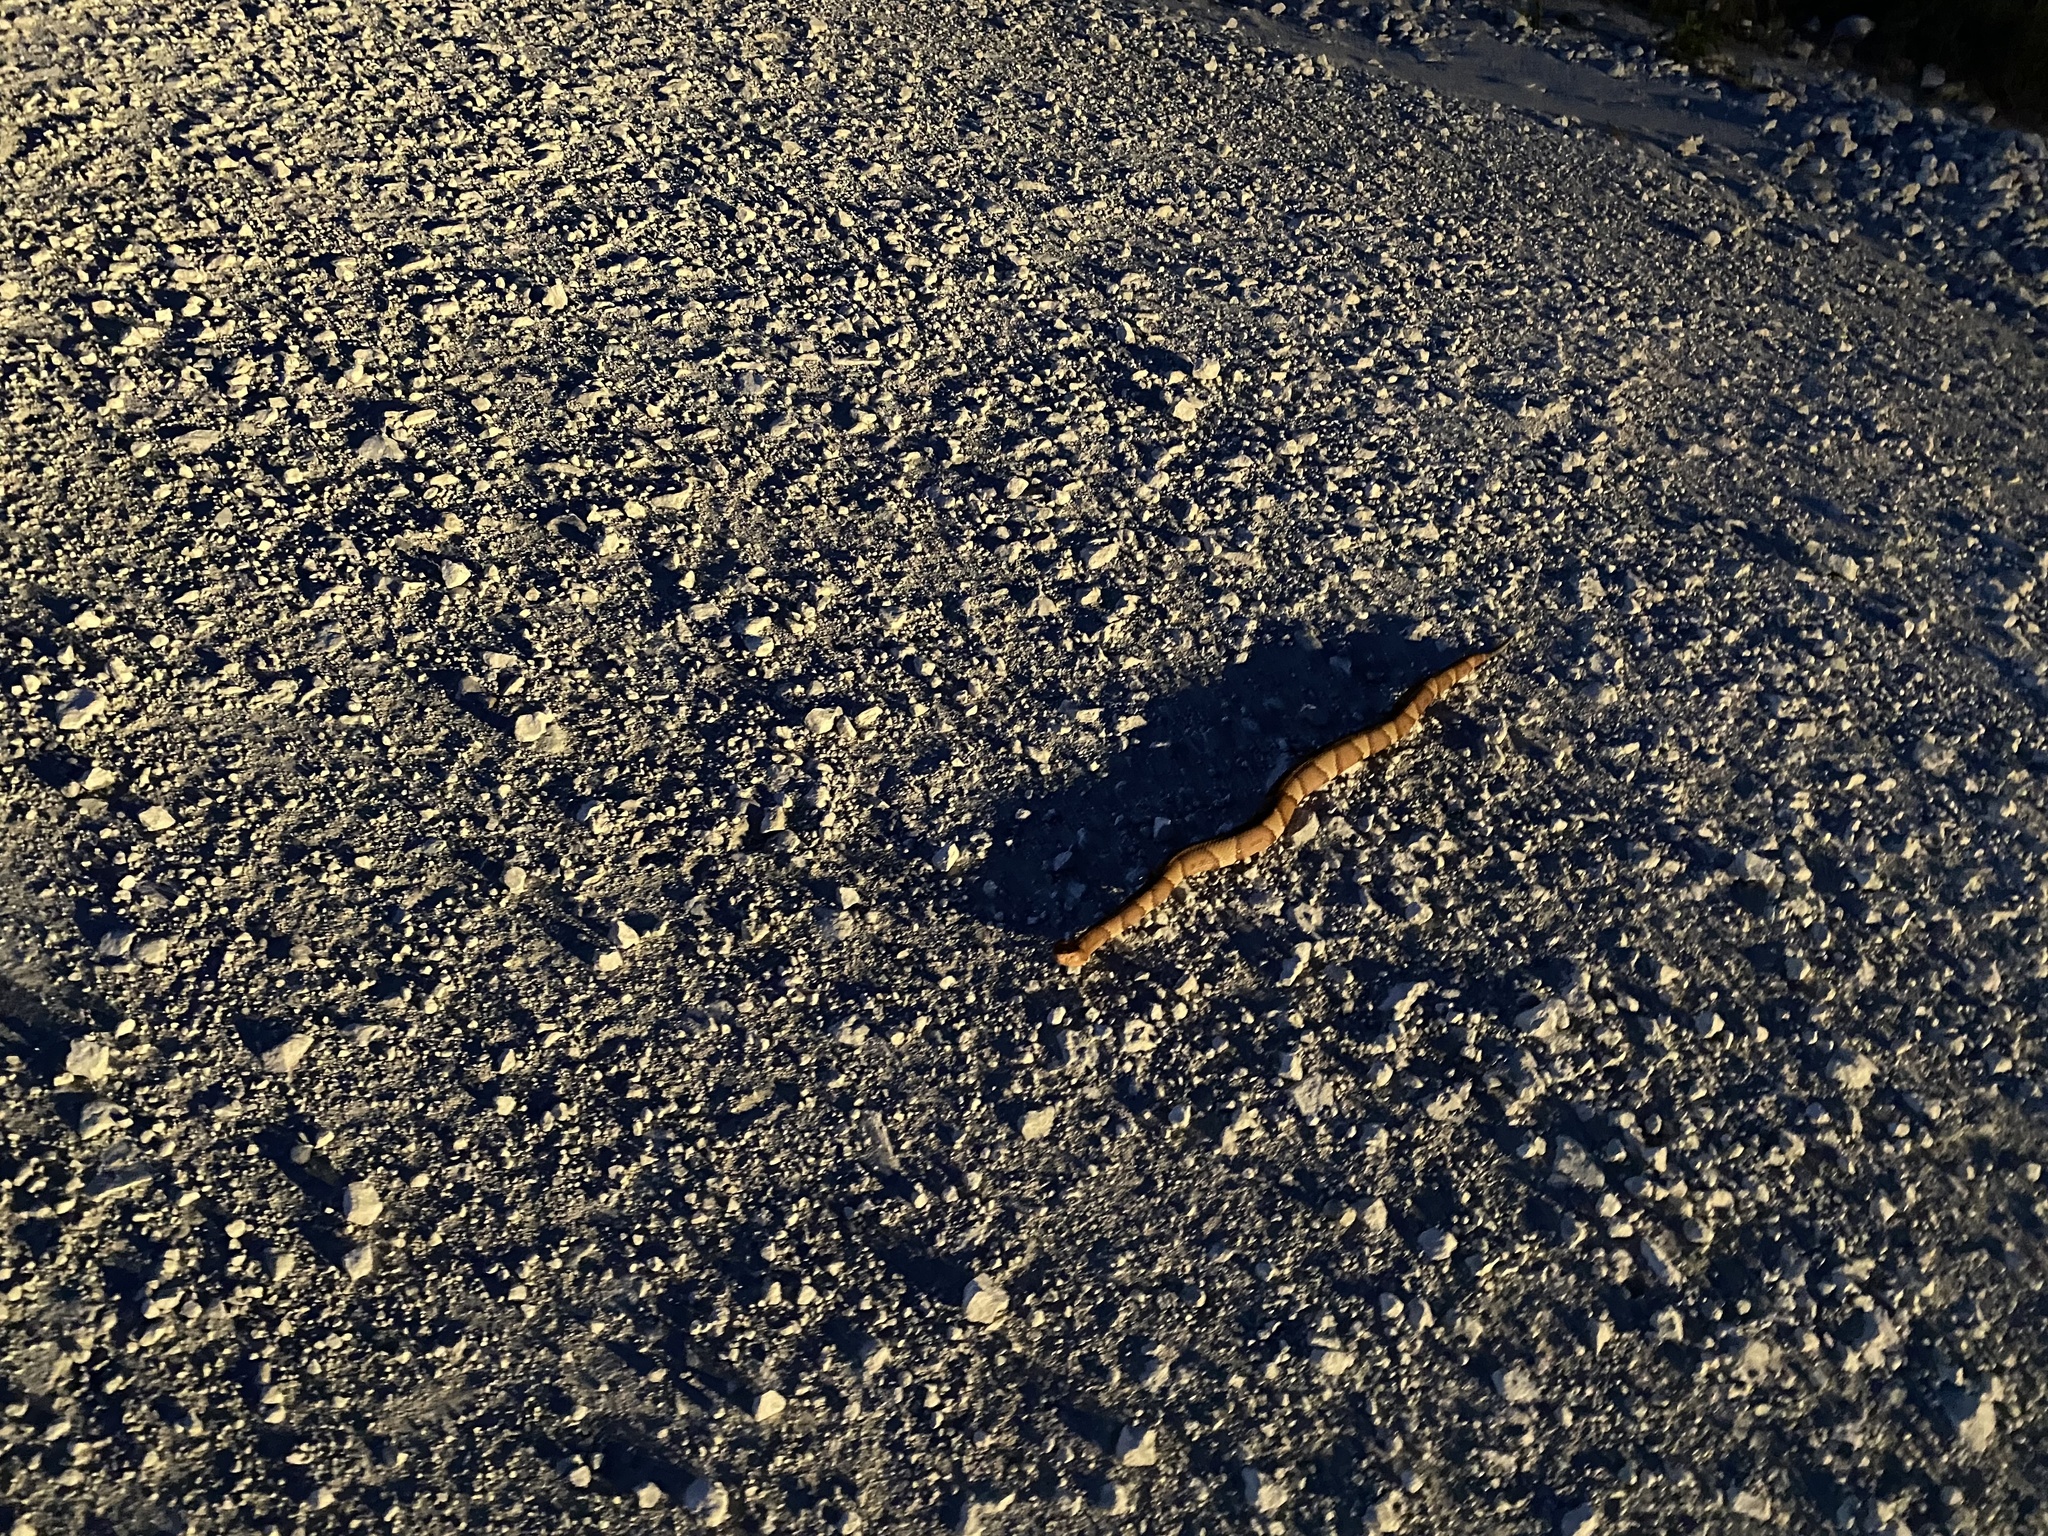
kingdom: Animalia
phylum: Chordata
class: Squamata
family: Viperidae
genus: Agkistrodon
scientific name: Agkistrodon laticinctus
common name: Broad-banded copperhead
